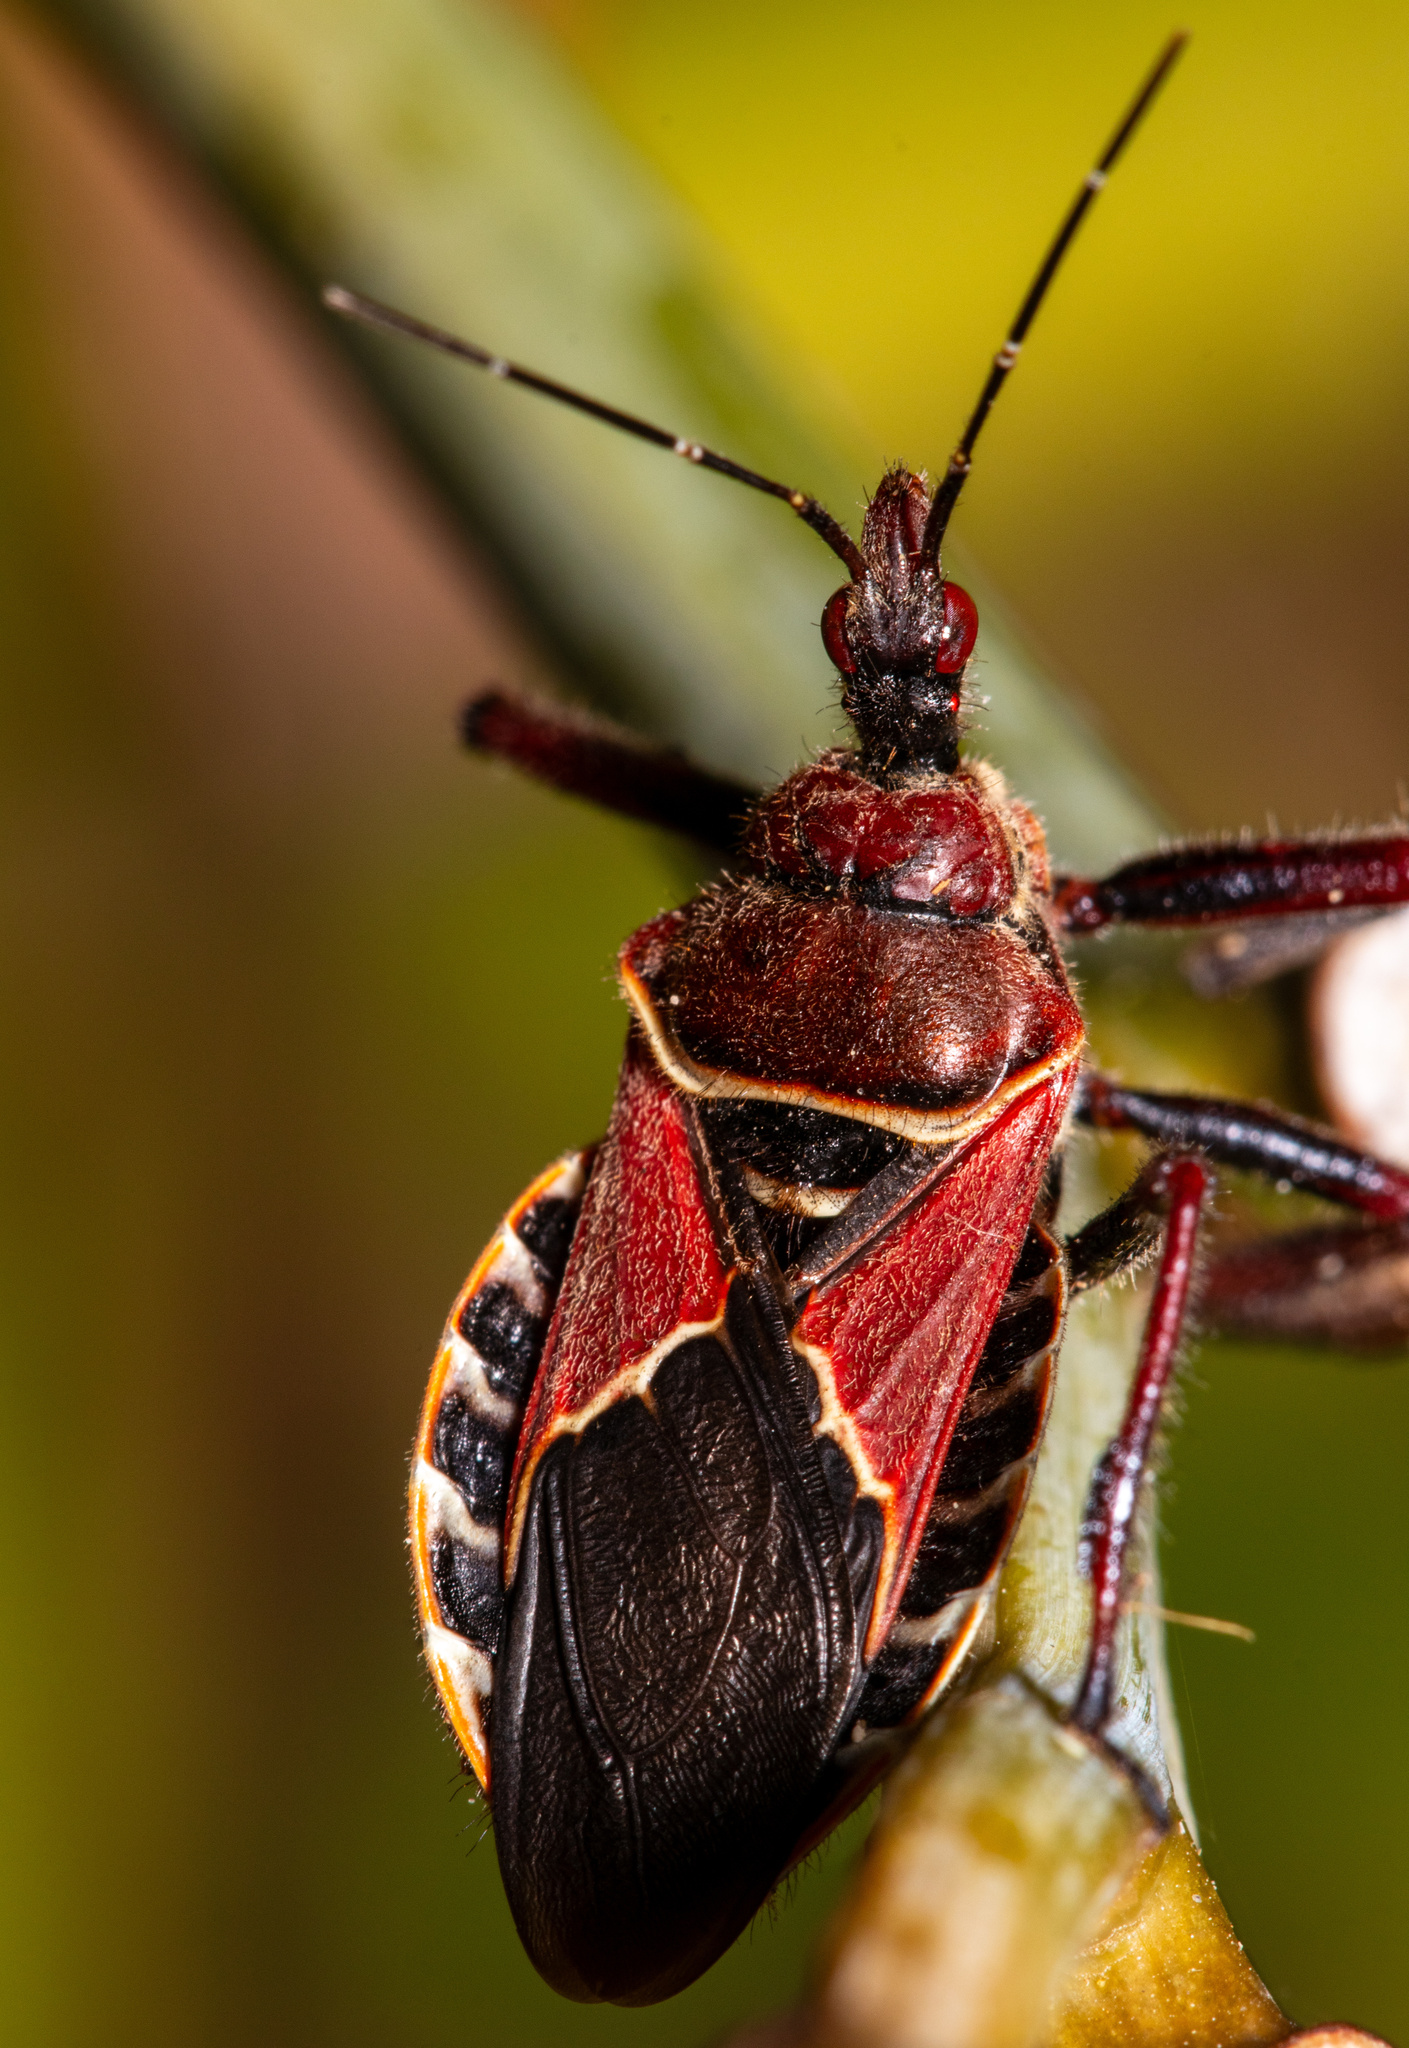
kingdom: Animalia
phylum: Arthropoda
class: Insecta
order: Hemiptera
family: Reduviidae
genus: Apiomerus
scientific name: Apiomerus spissipes
